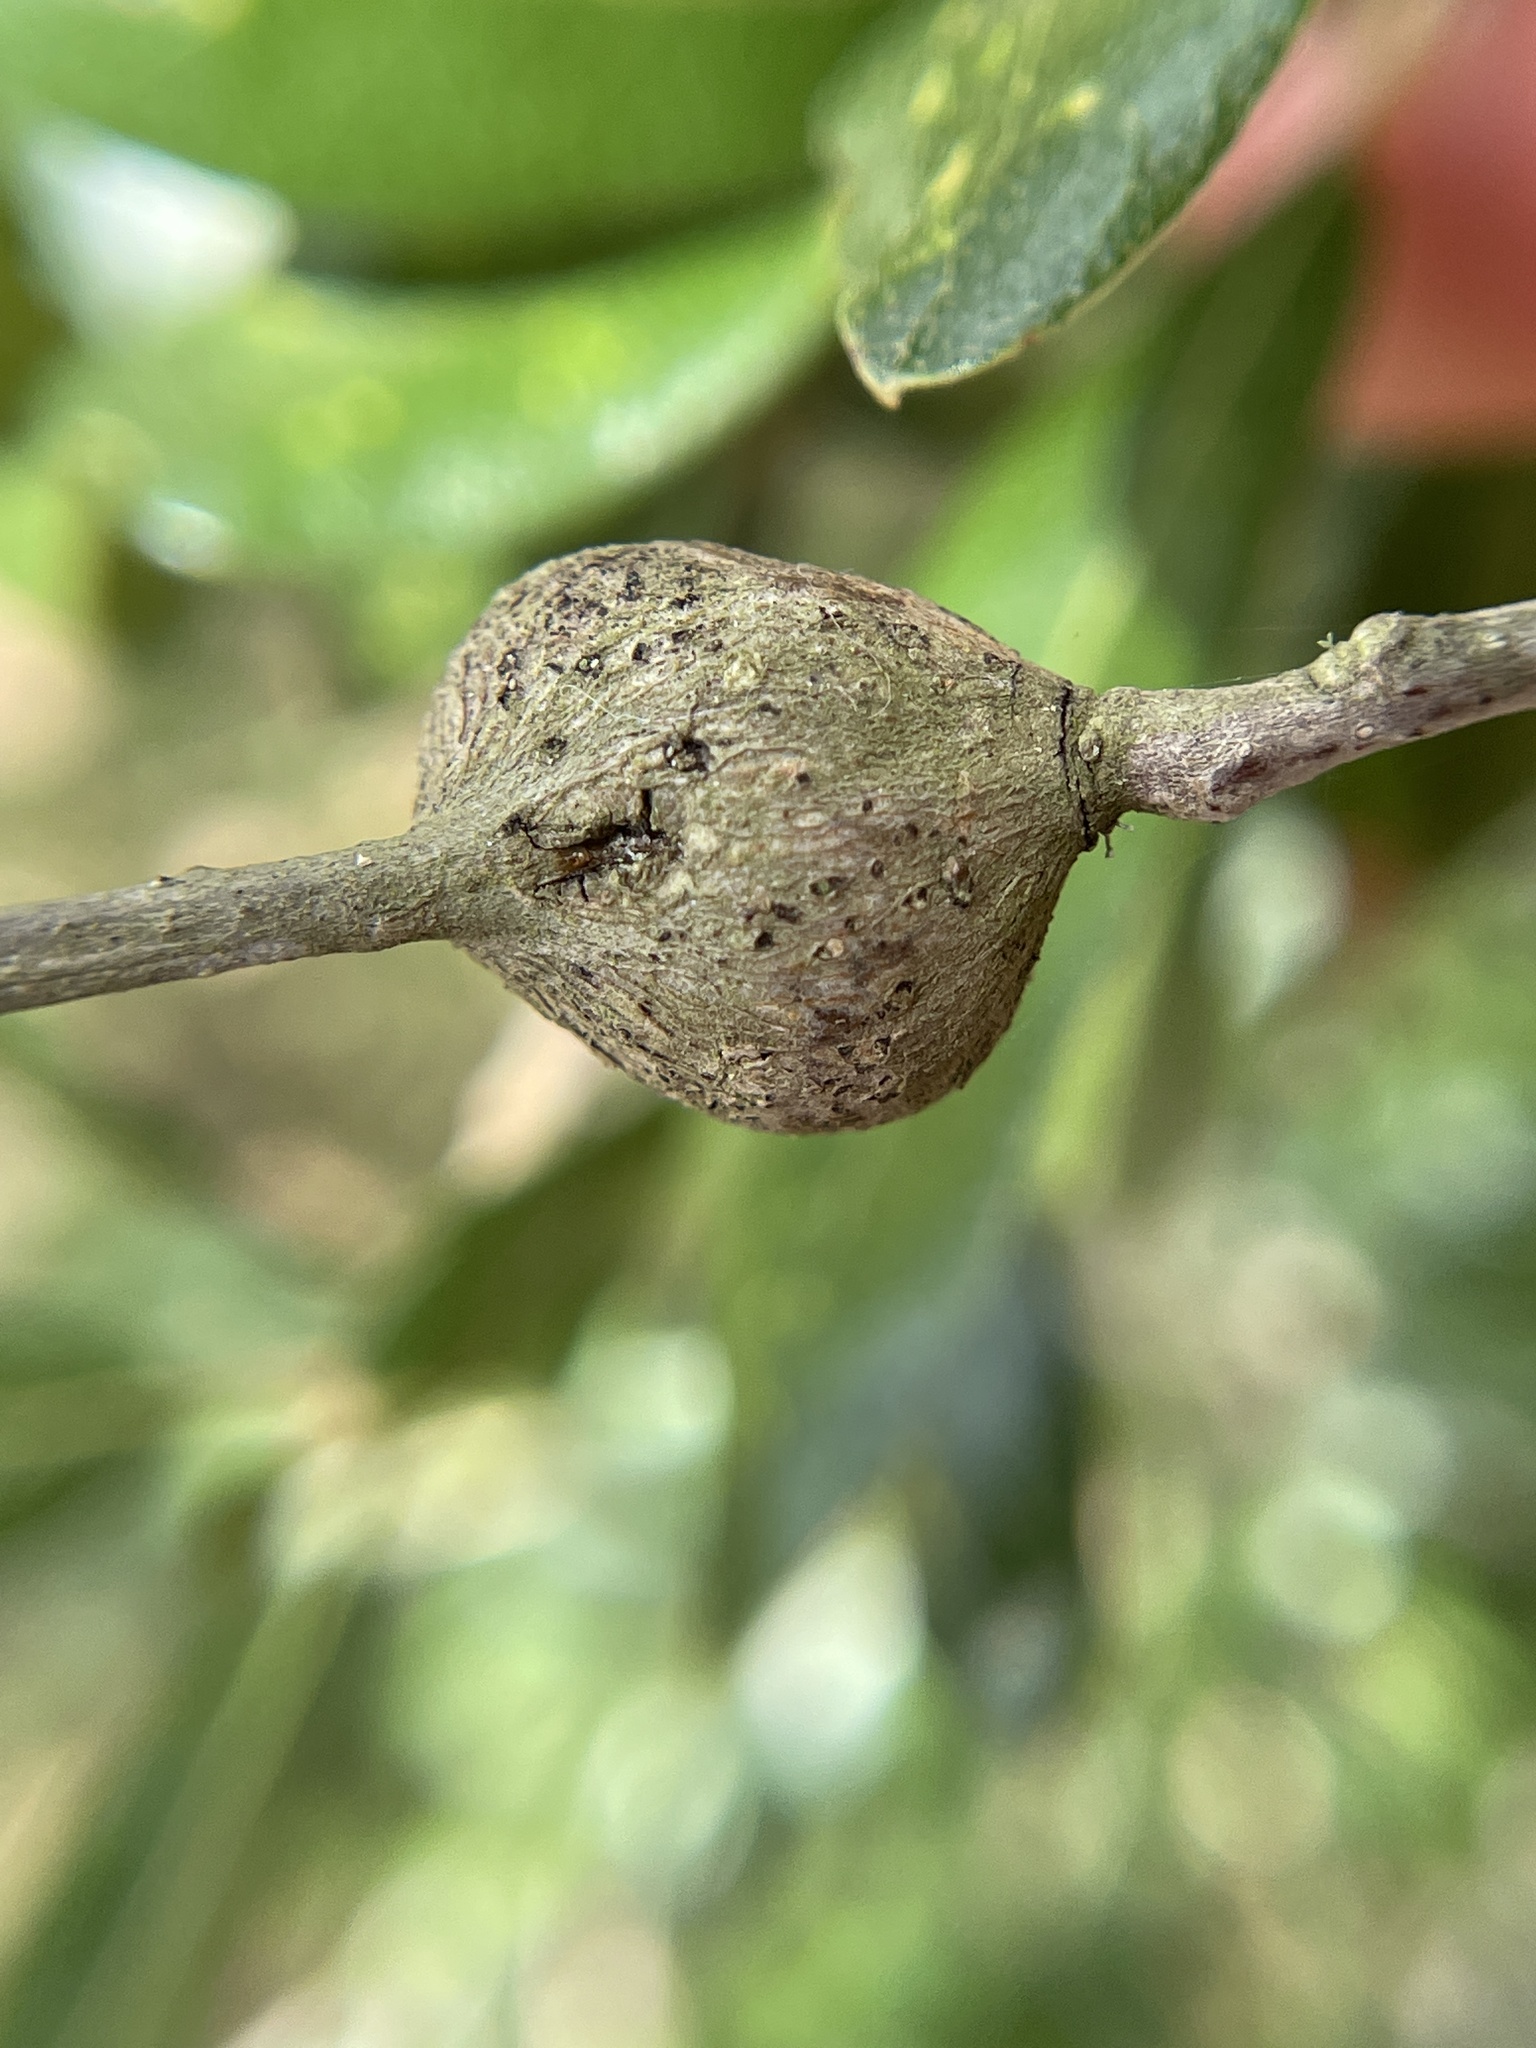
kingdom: Animalia
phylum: Arthropoda
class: Insecta
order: Hymenoptera
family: Cynipidae
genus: Callirhytis
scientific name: Callirhytis
